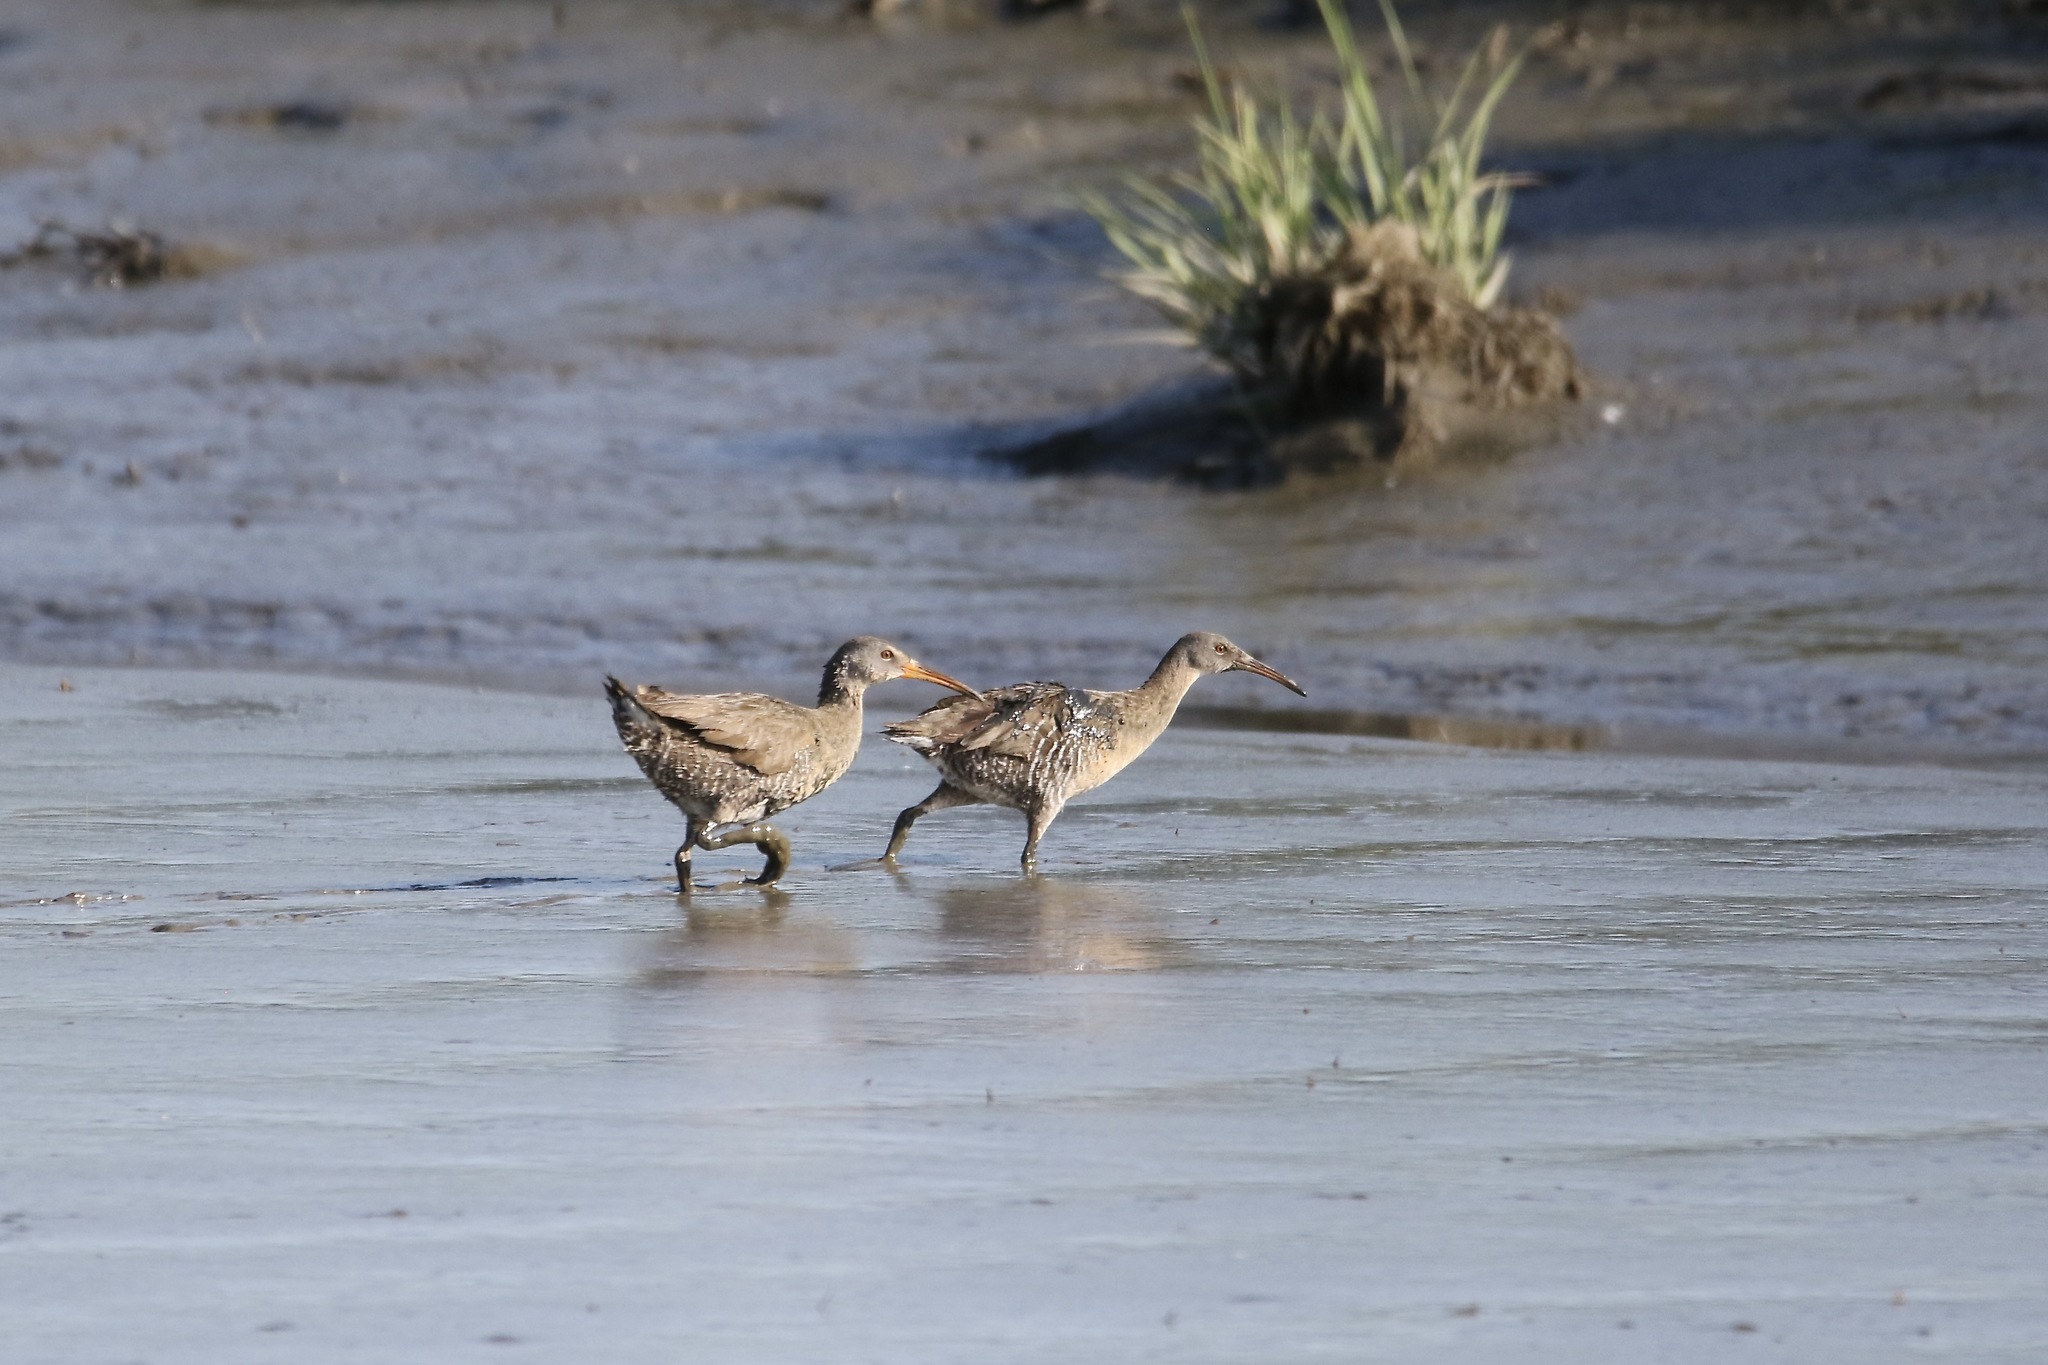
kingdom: Animalia
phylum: Chordata
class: Aves
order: Gruiformes
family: Rallidae
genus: Rallus
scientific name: Rallus crepitans
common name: Clapper rail
